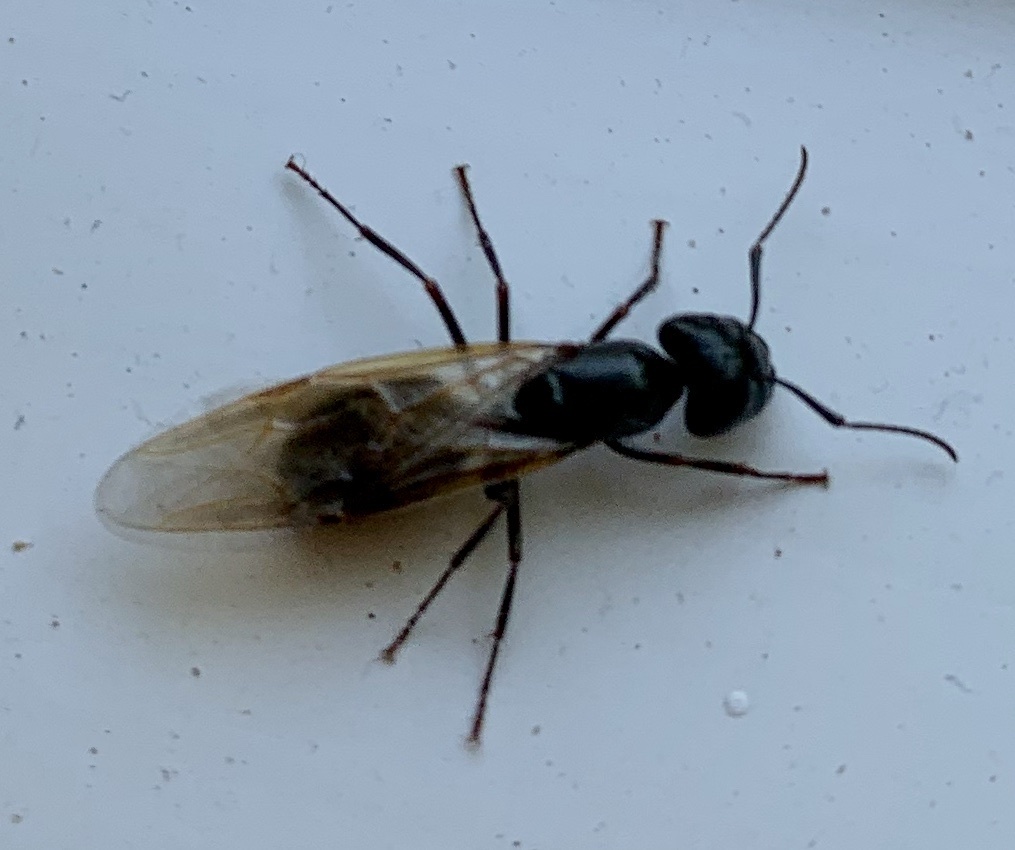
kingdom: Animalia
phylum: Arthropoda
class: Insecta
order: Hymenoptera
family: Formicidae
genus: Camponotus
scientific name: Camponotus pennsylvanicus
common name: Black carpenter ant
